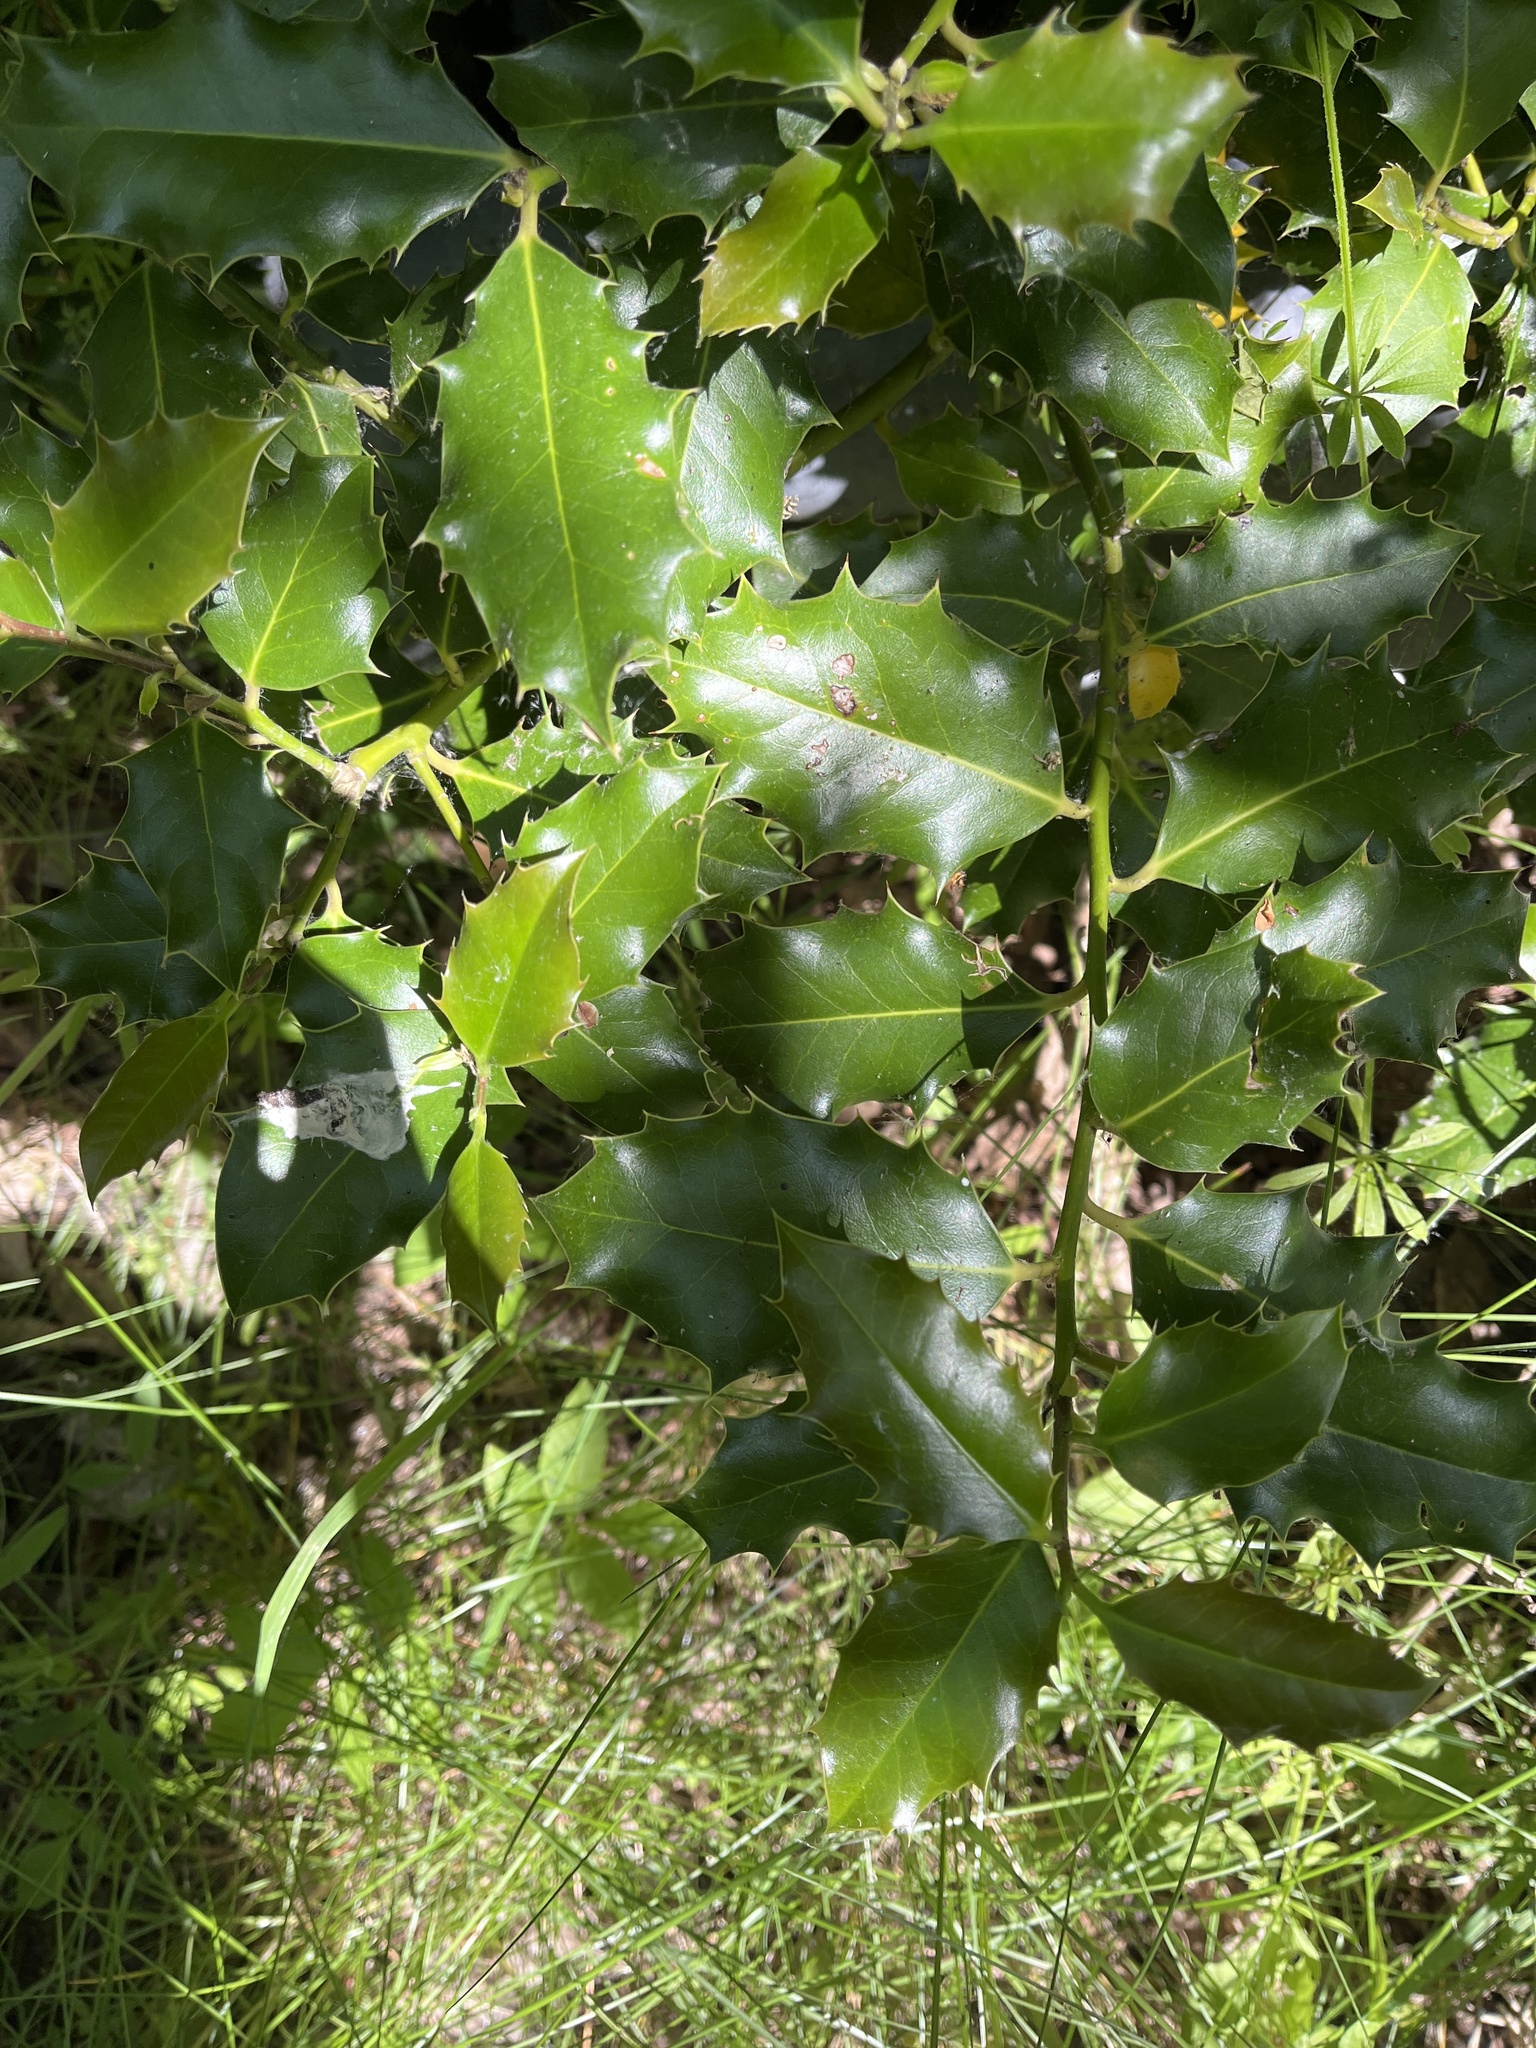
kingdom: Plantae
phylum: Tracheophyta
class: Magnoliopsida
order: Aquifoliales
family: Aquifoliaceae
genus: Ilex
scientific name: Ilex aquifolium
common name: English holly
